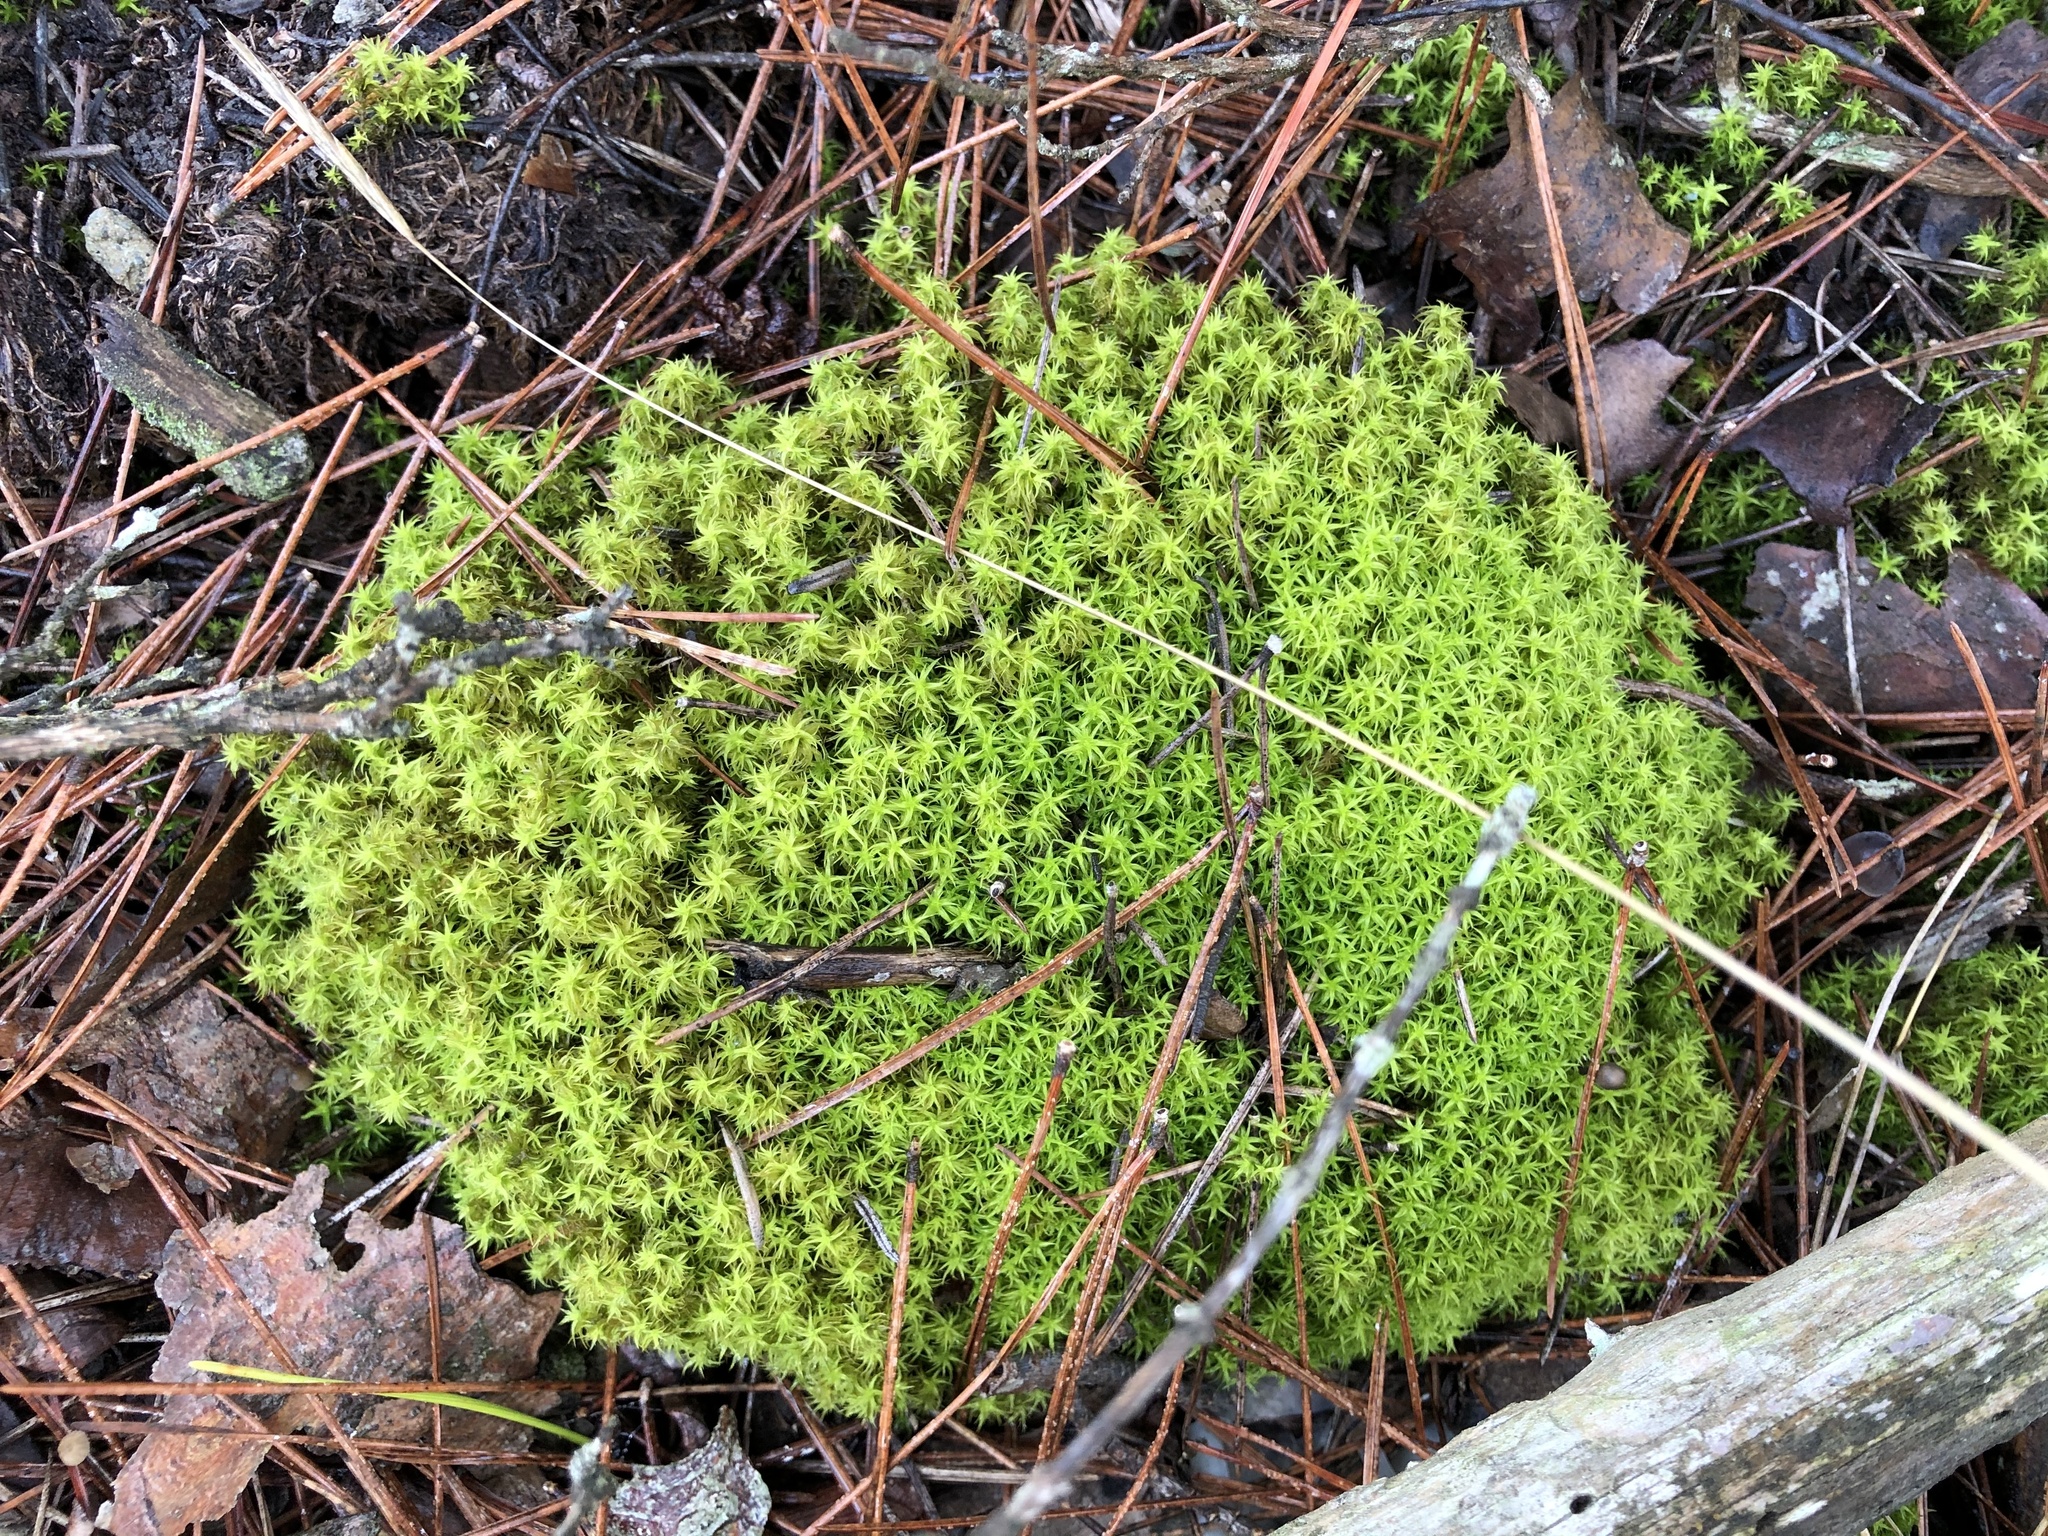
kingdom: Plantae
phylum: Bryophyta
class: Bryopsida
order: Pottiales
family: Pottiaceae
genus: Pleurochaete
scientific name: Pleurochaete squarrosa
